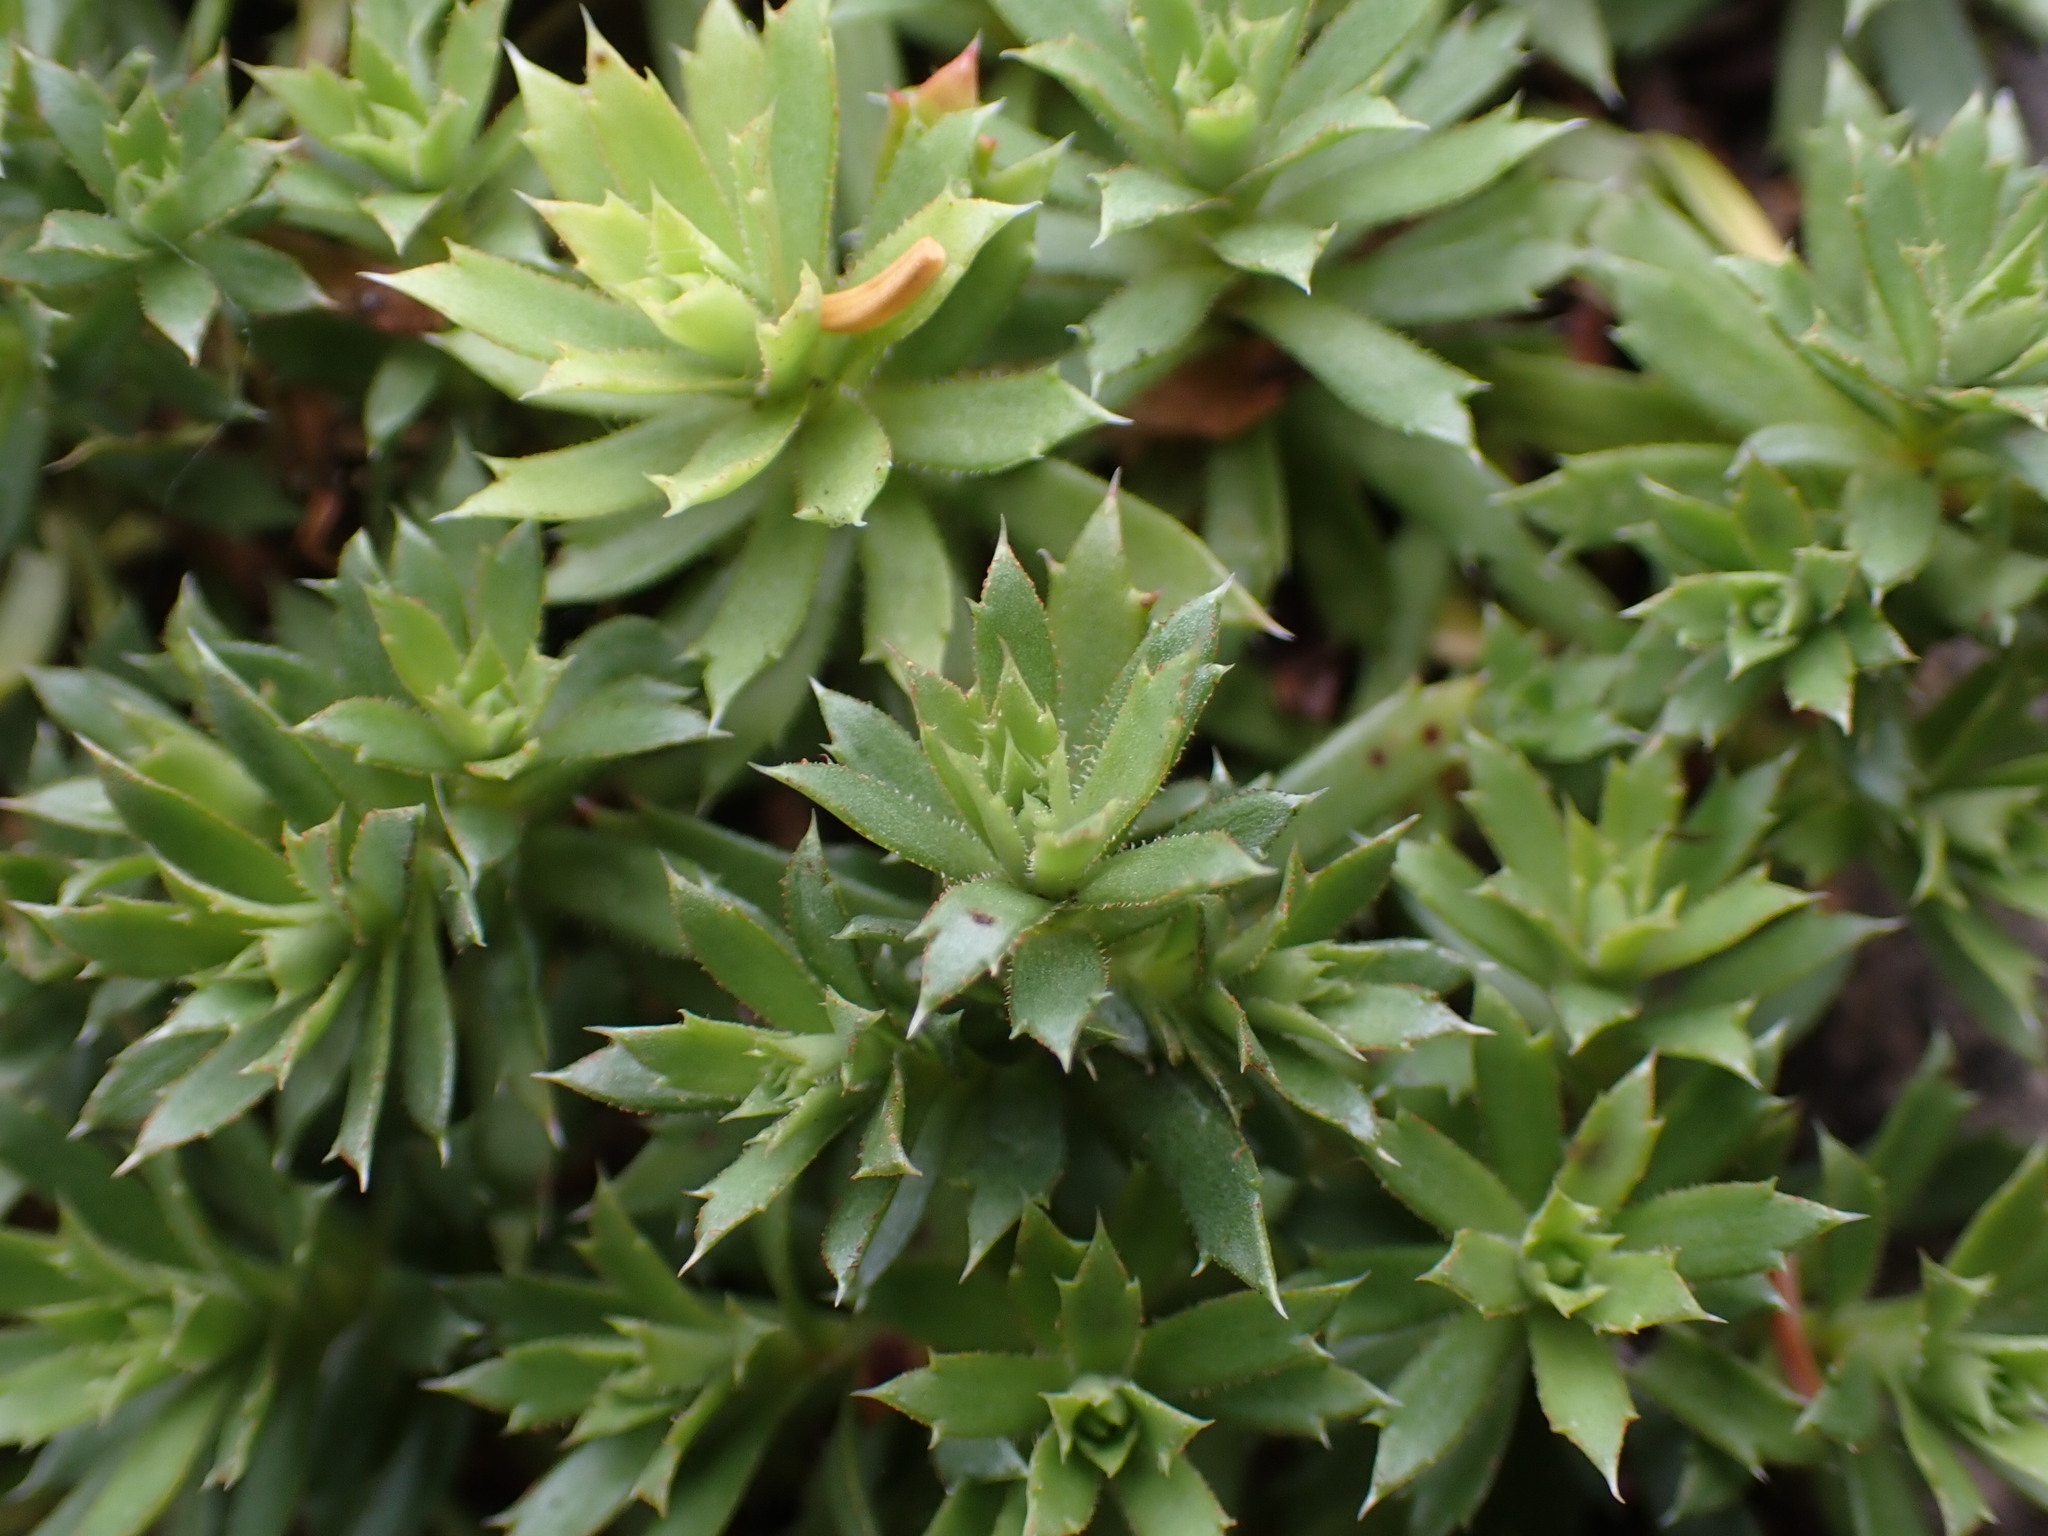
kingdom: Plantae
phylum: Tracheophyta
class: Magnoliopsida
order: Saxifragales
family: Saxifragaceae
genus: Saxifraga
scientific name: Saxifraga tricuspidata
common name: Prickly saxifrage
